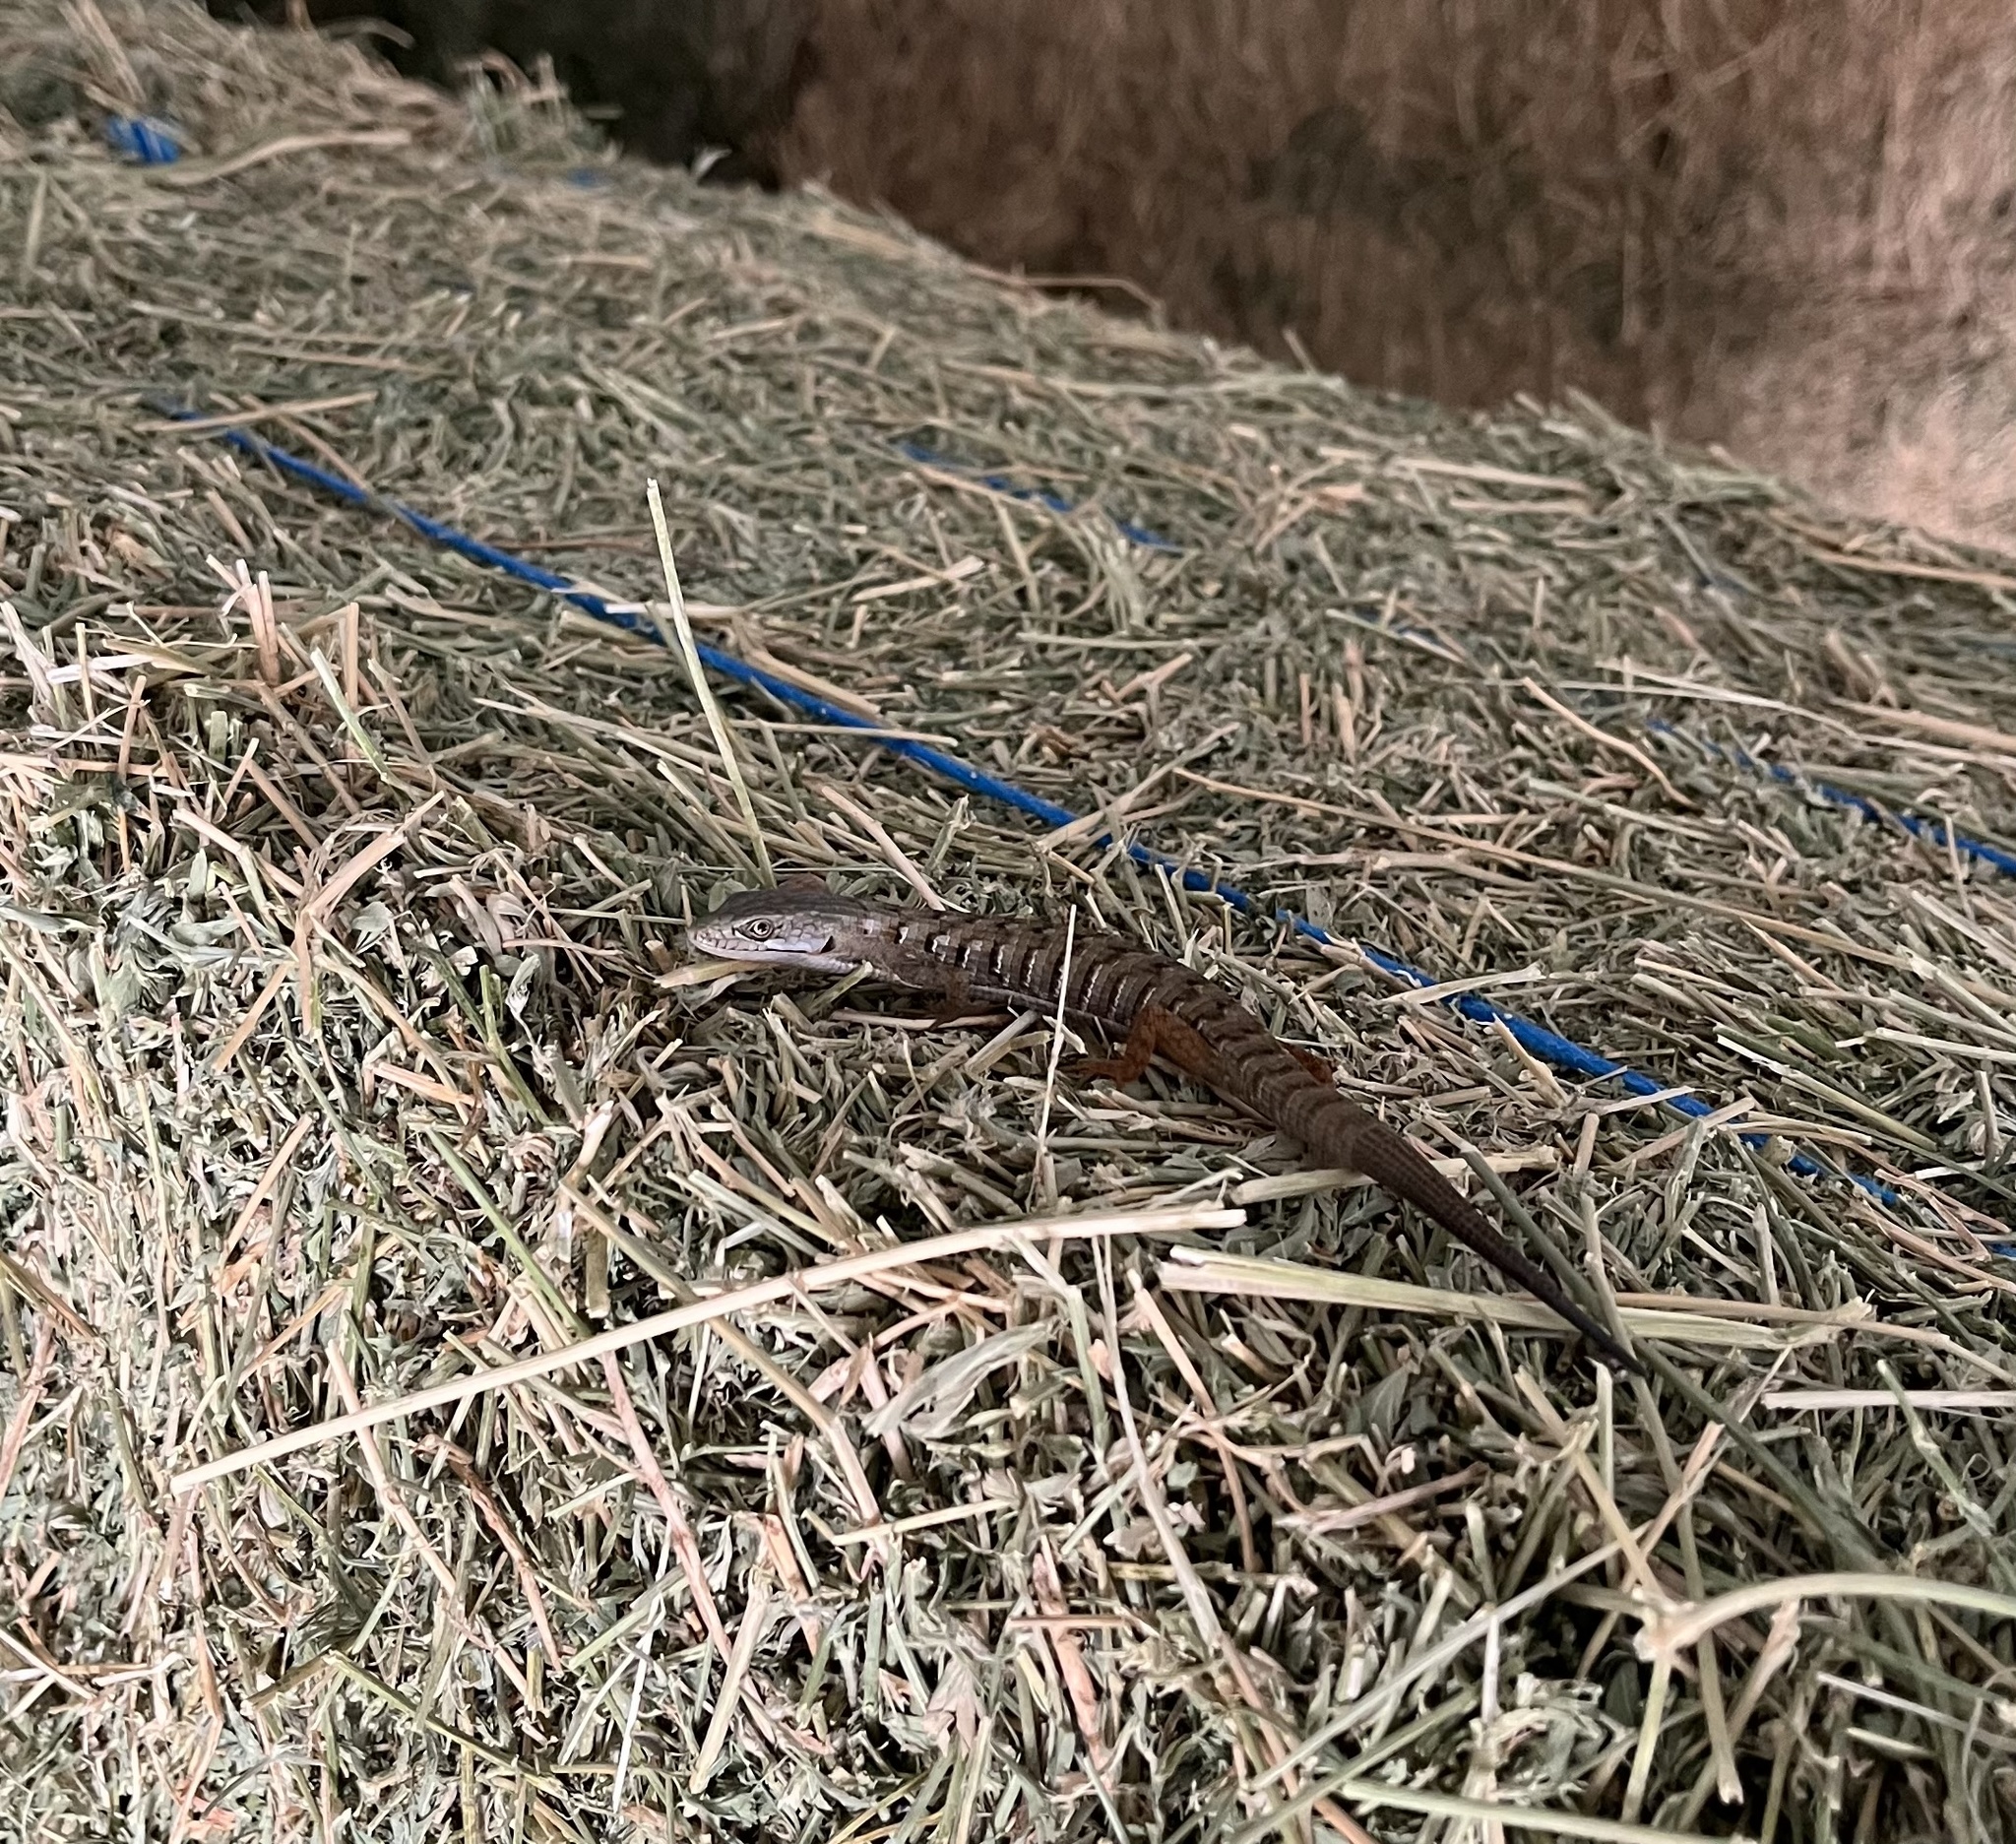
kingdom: Animalia
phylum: Chordata
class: Squamata
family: Anguidae
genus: Elgaria
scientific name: Elgaria multicarinata
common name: Southern alligator lizard
